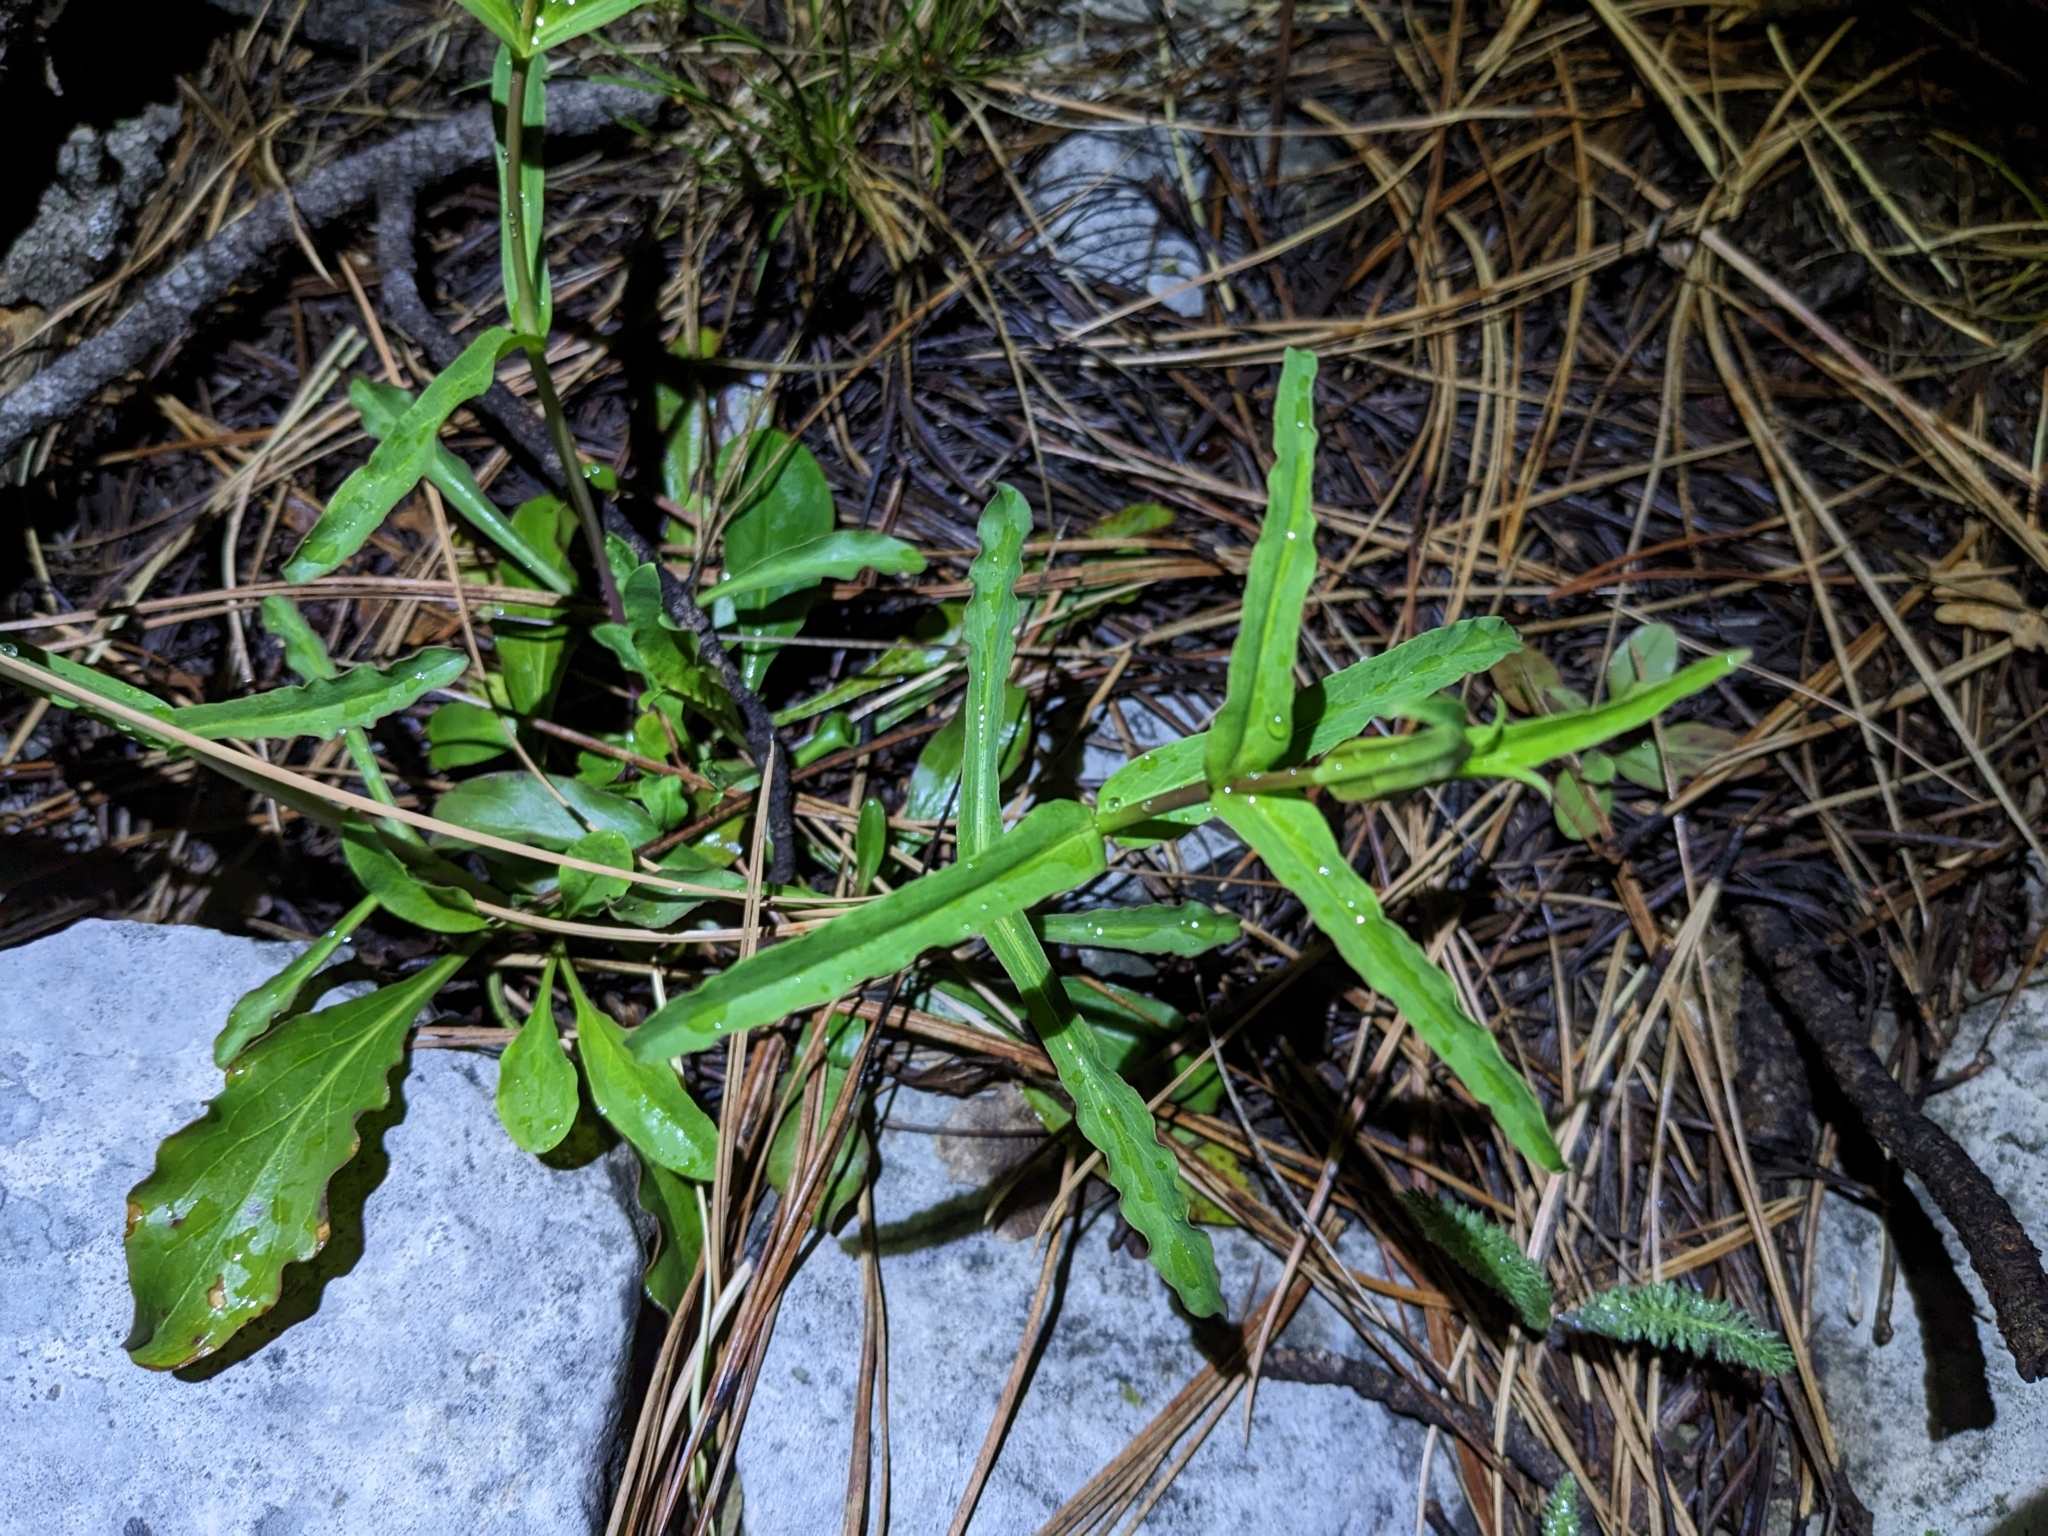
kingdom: Plantae
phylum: Tracheophyta
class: Magnoliopsida
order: Lamiales
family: Plantaginaceae
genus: Penstemon
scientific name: Penstemon barbatus
